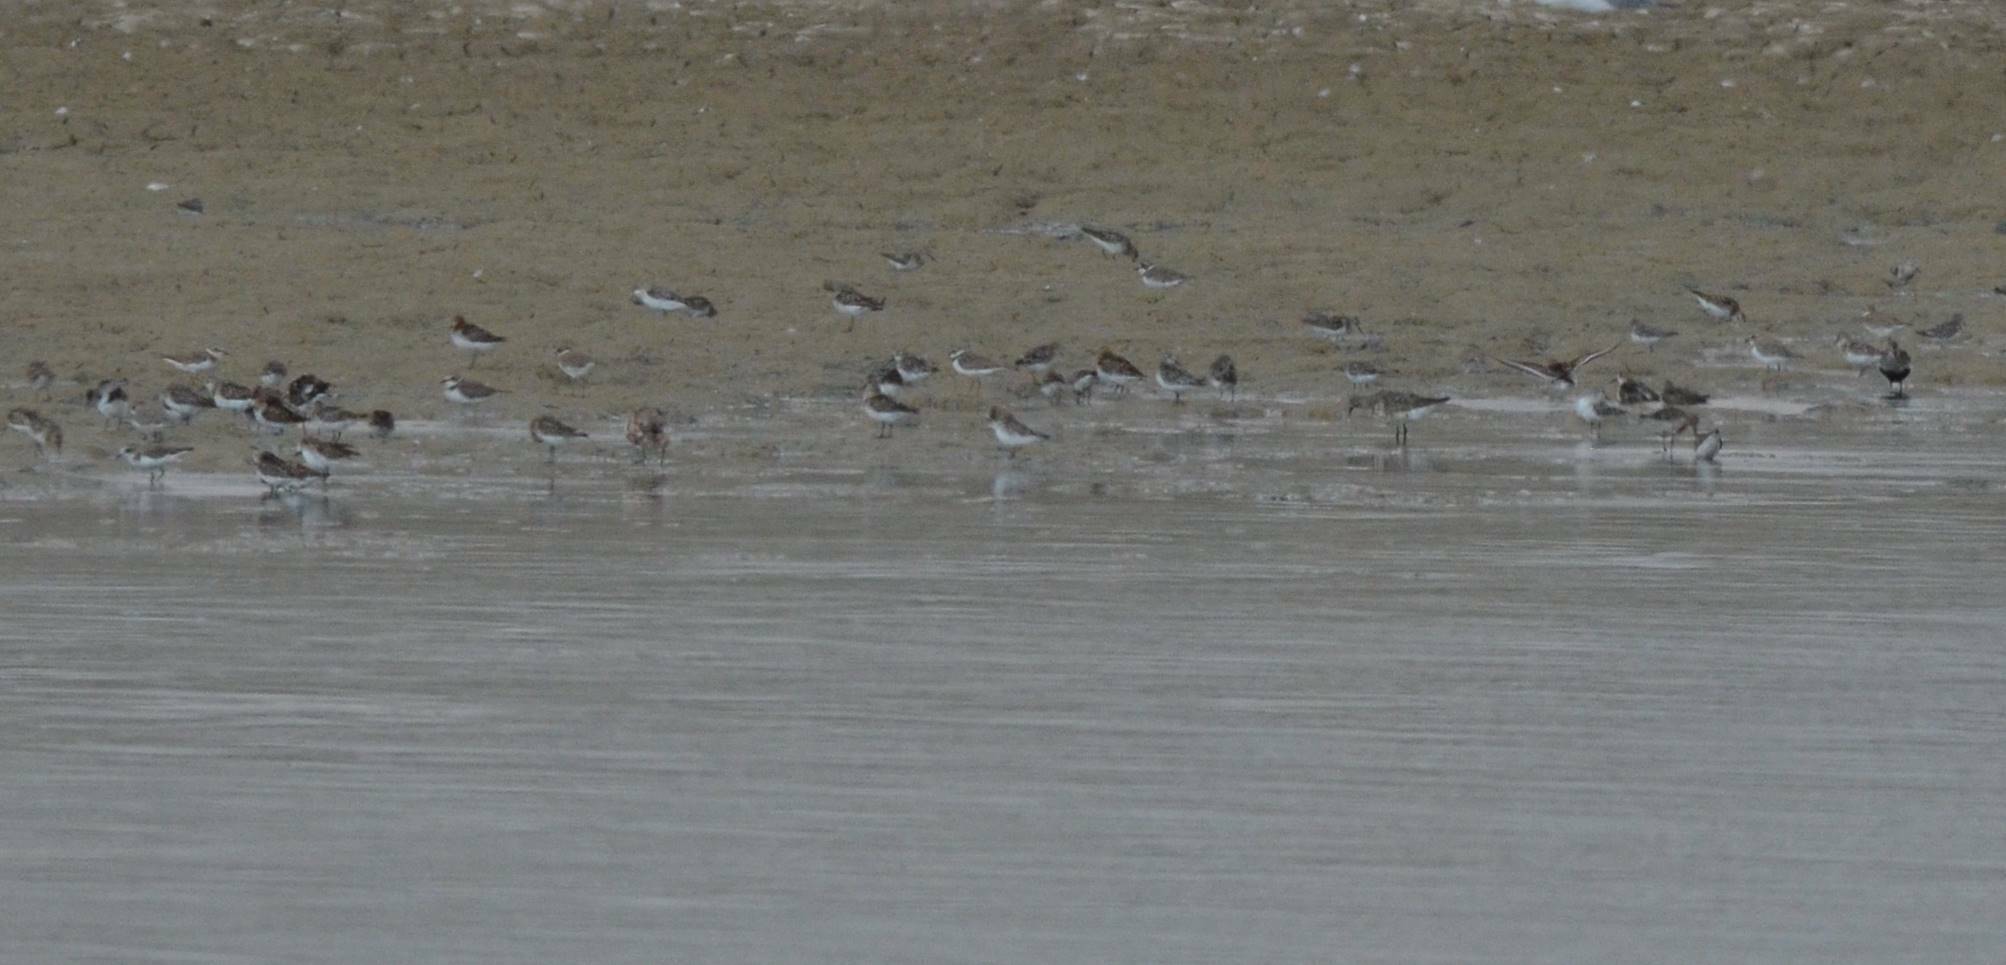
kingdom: Animalia
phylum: Chordata
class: Aves
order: Charadriiformes
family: Charadriidae
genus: Charadrius
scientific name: Charadrius dubius
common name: Little ringed plover
